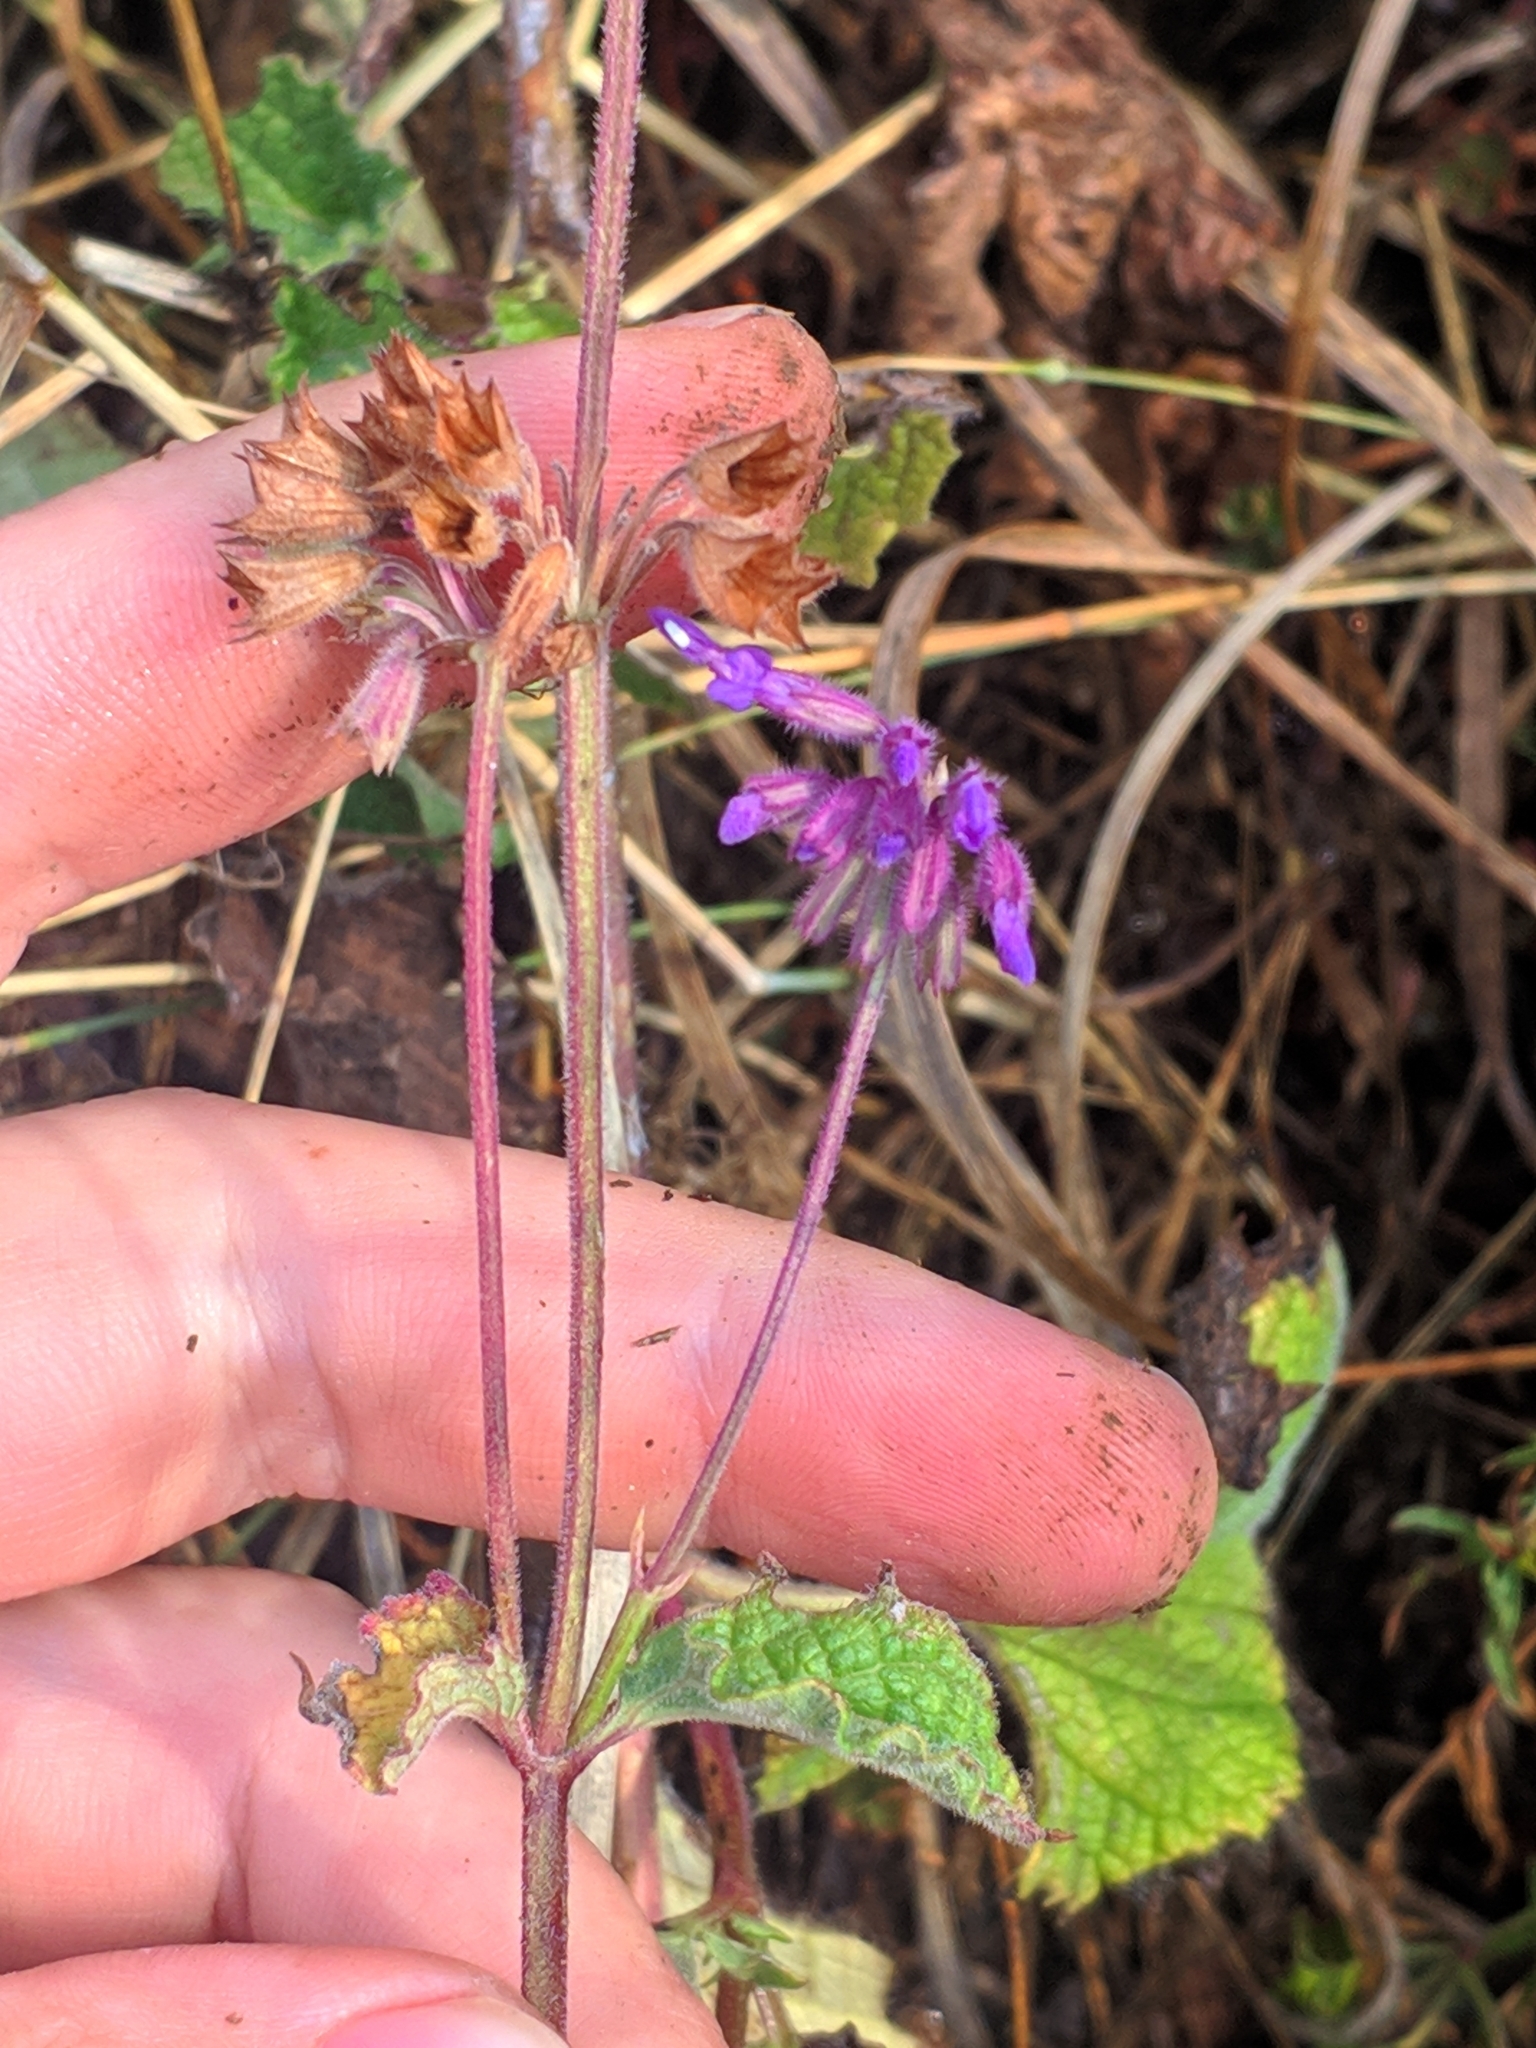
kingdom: Plantae
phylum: Tracheophyta
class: Magnoliopsida
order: Lamiales
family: Lamiaceae
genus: Salvia
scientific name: Salvia verticillata
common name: Whorled clary
